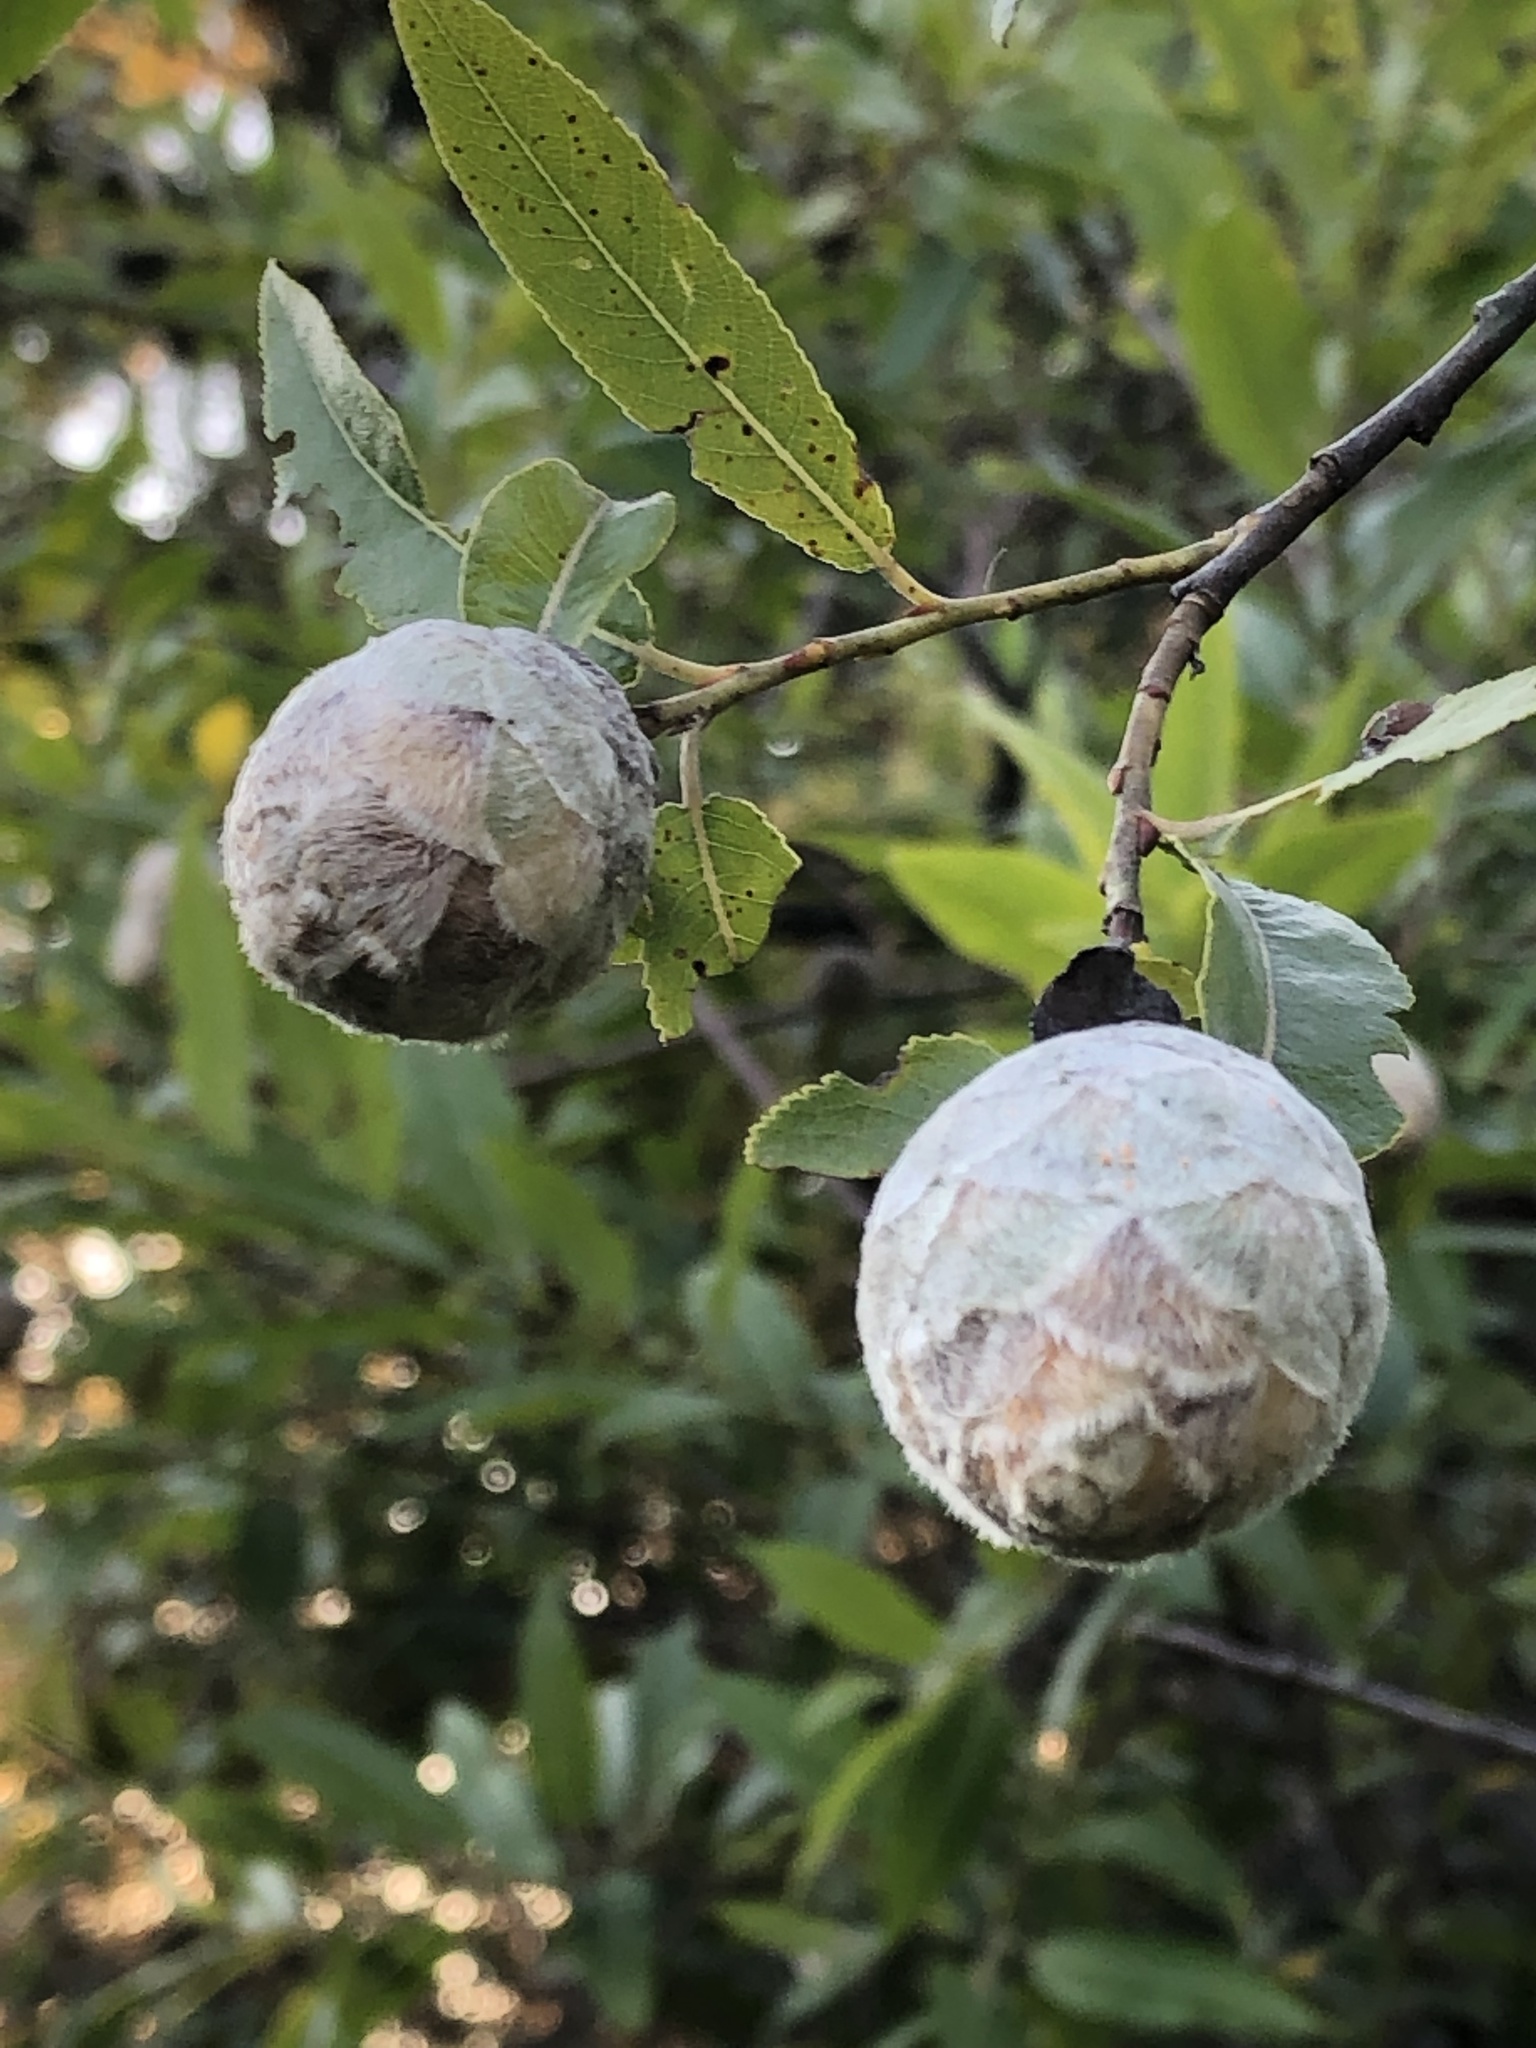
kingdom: Animalia
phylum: Arthropoda
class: Insecta
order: Diptera
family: Cecidomyiidae
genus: Rabdophaga
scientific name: Rabdophaga strobiloides
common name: Willow pinecone gall midge
